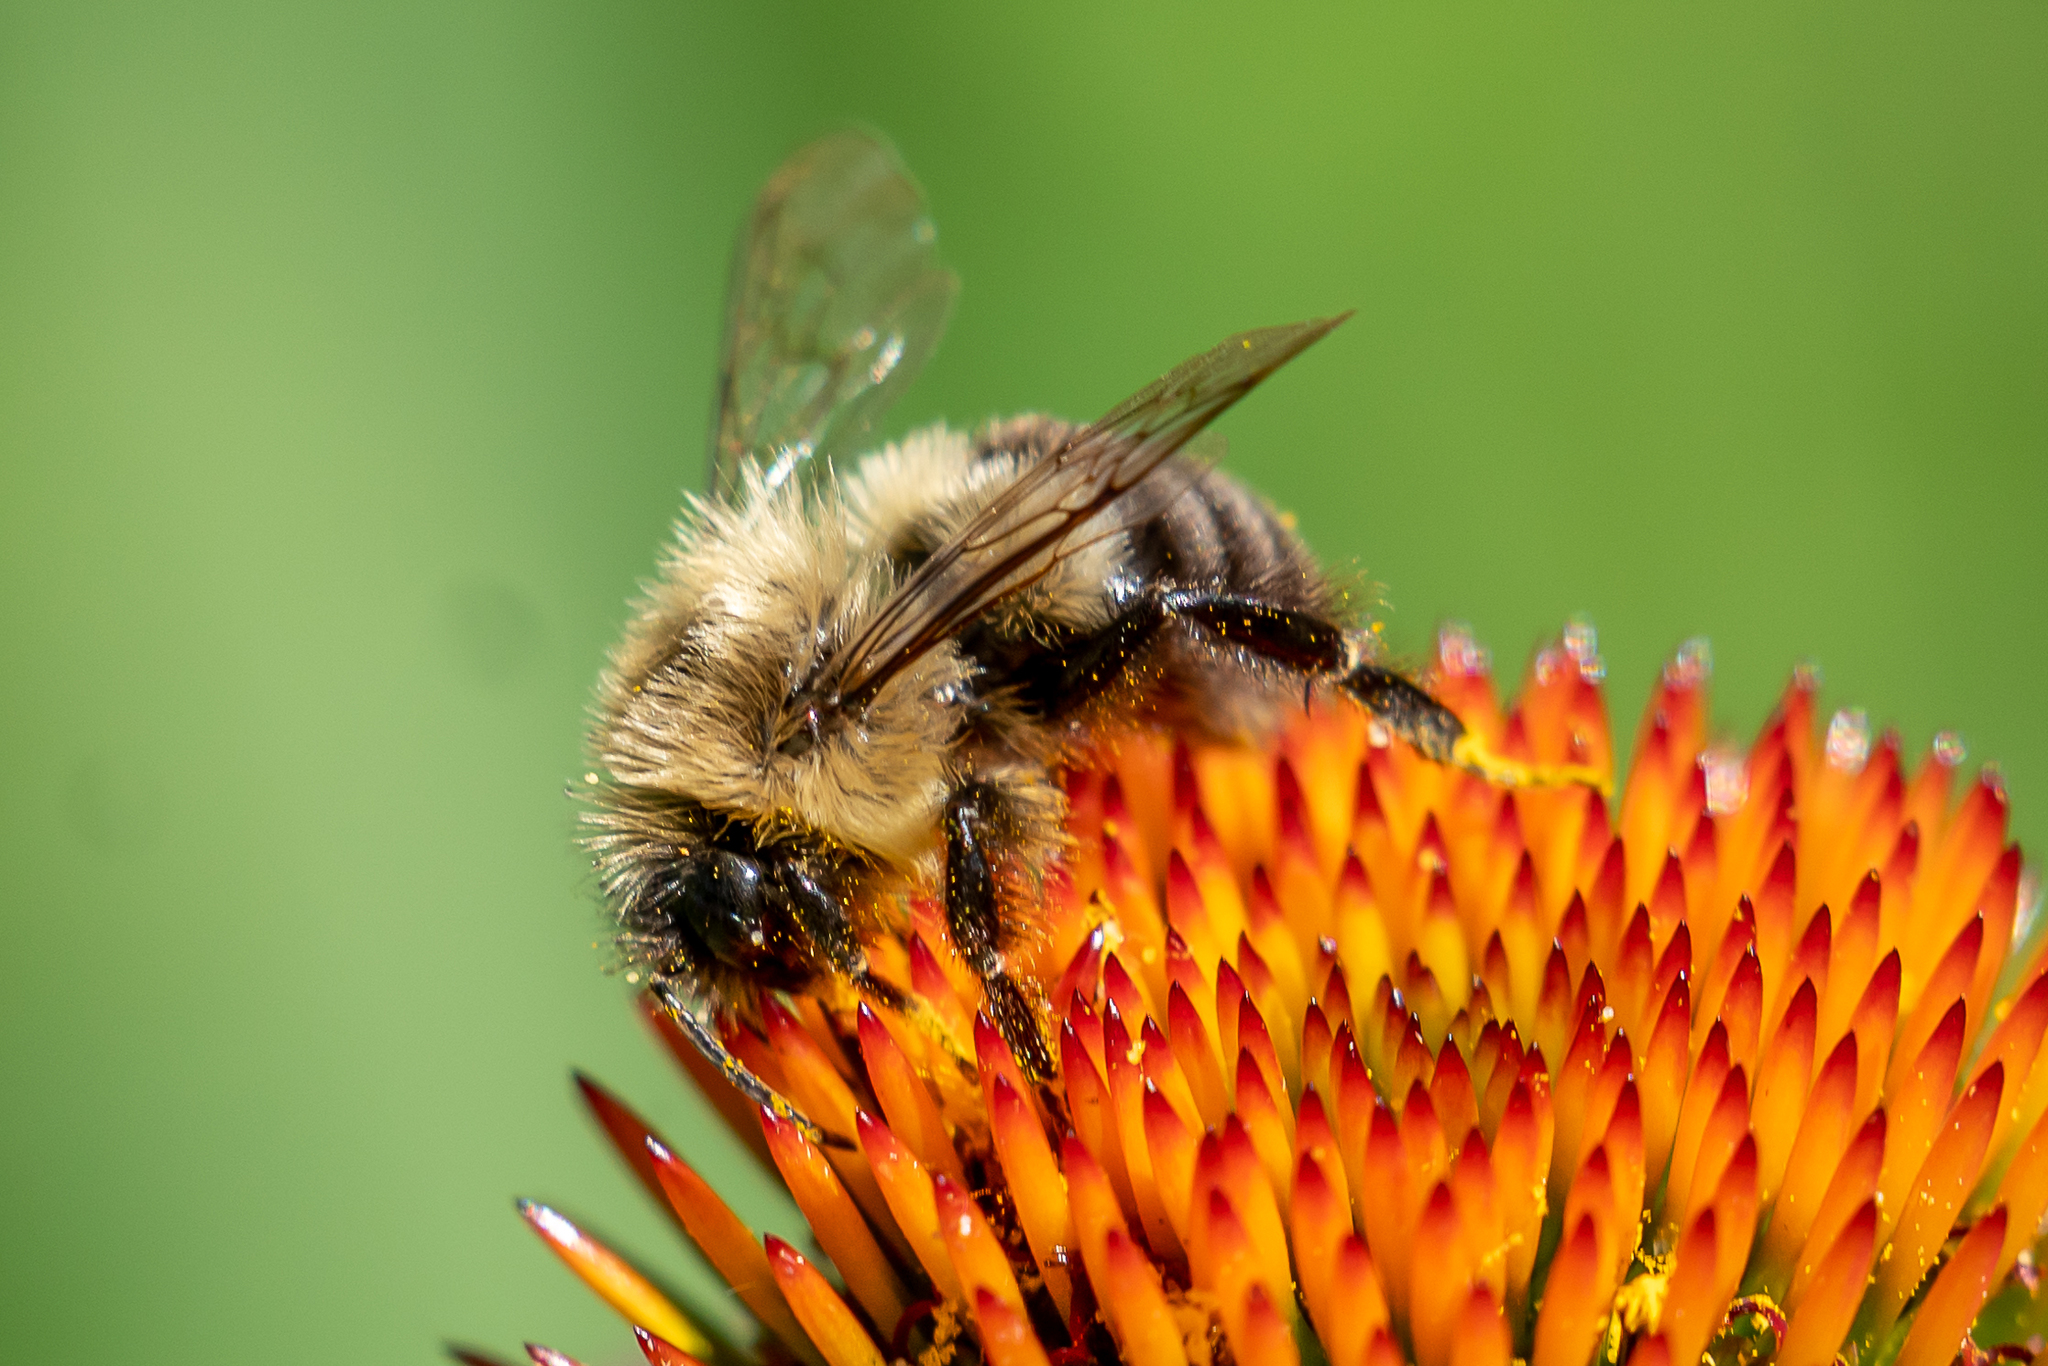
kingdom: Animalia
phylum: Arthropoda
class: Insecta
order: Hymenoptera
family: Apidae
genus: Bombus
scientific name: Bombus impatiens
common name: Common eastern bumble bee
